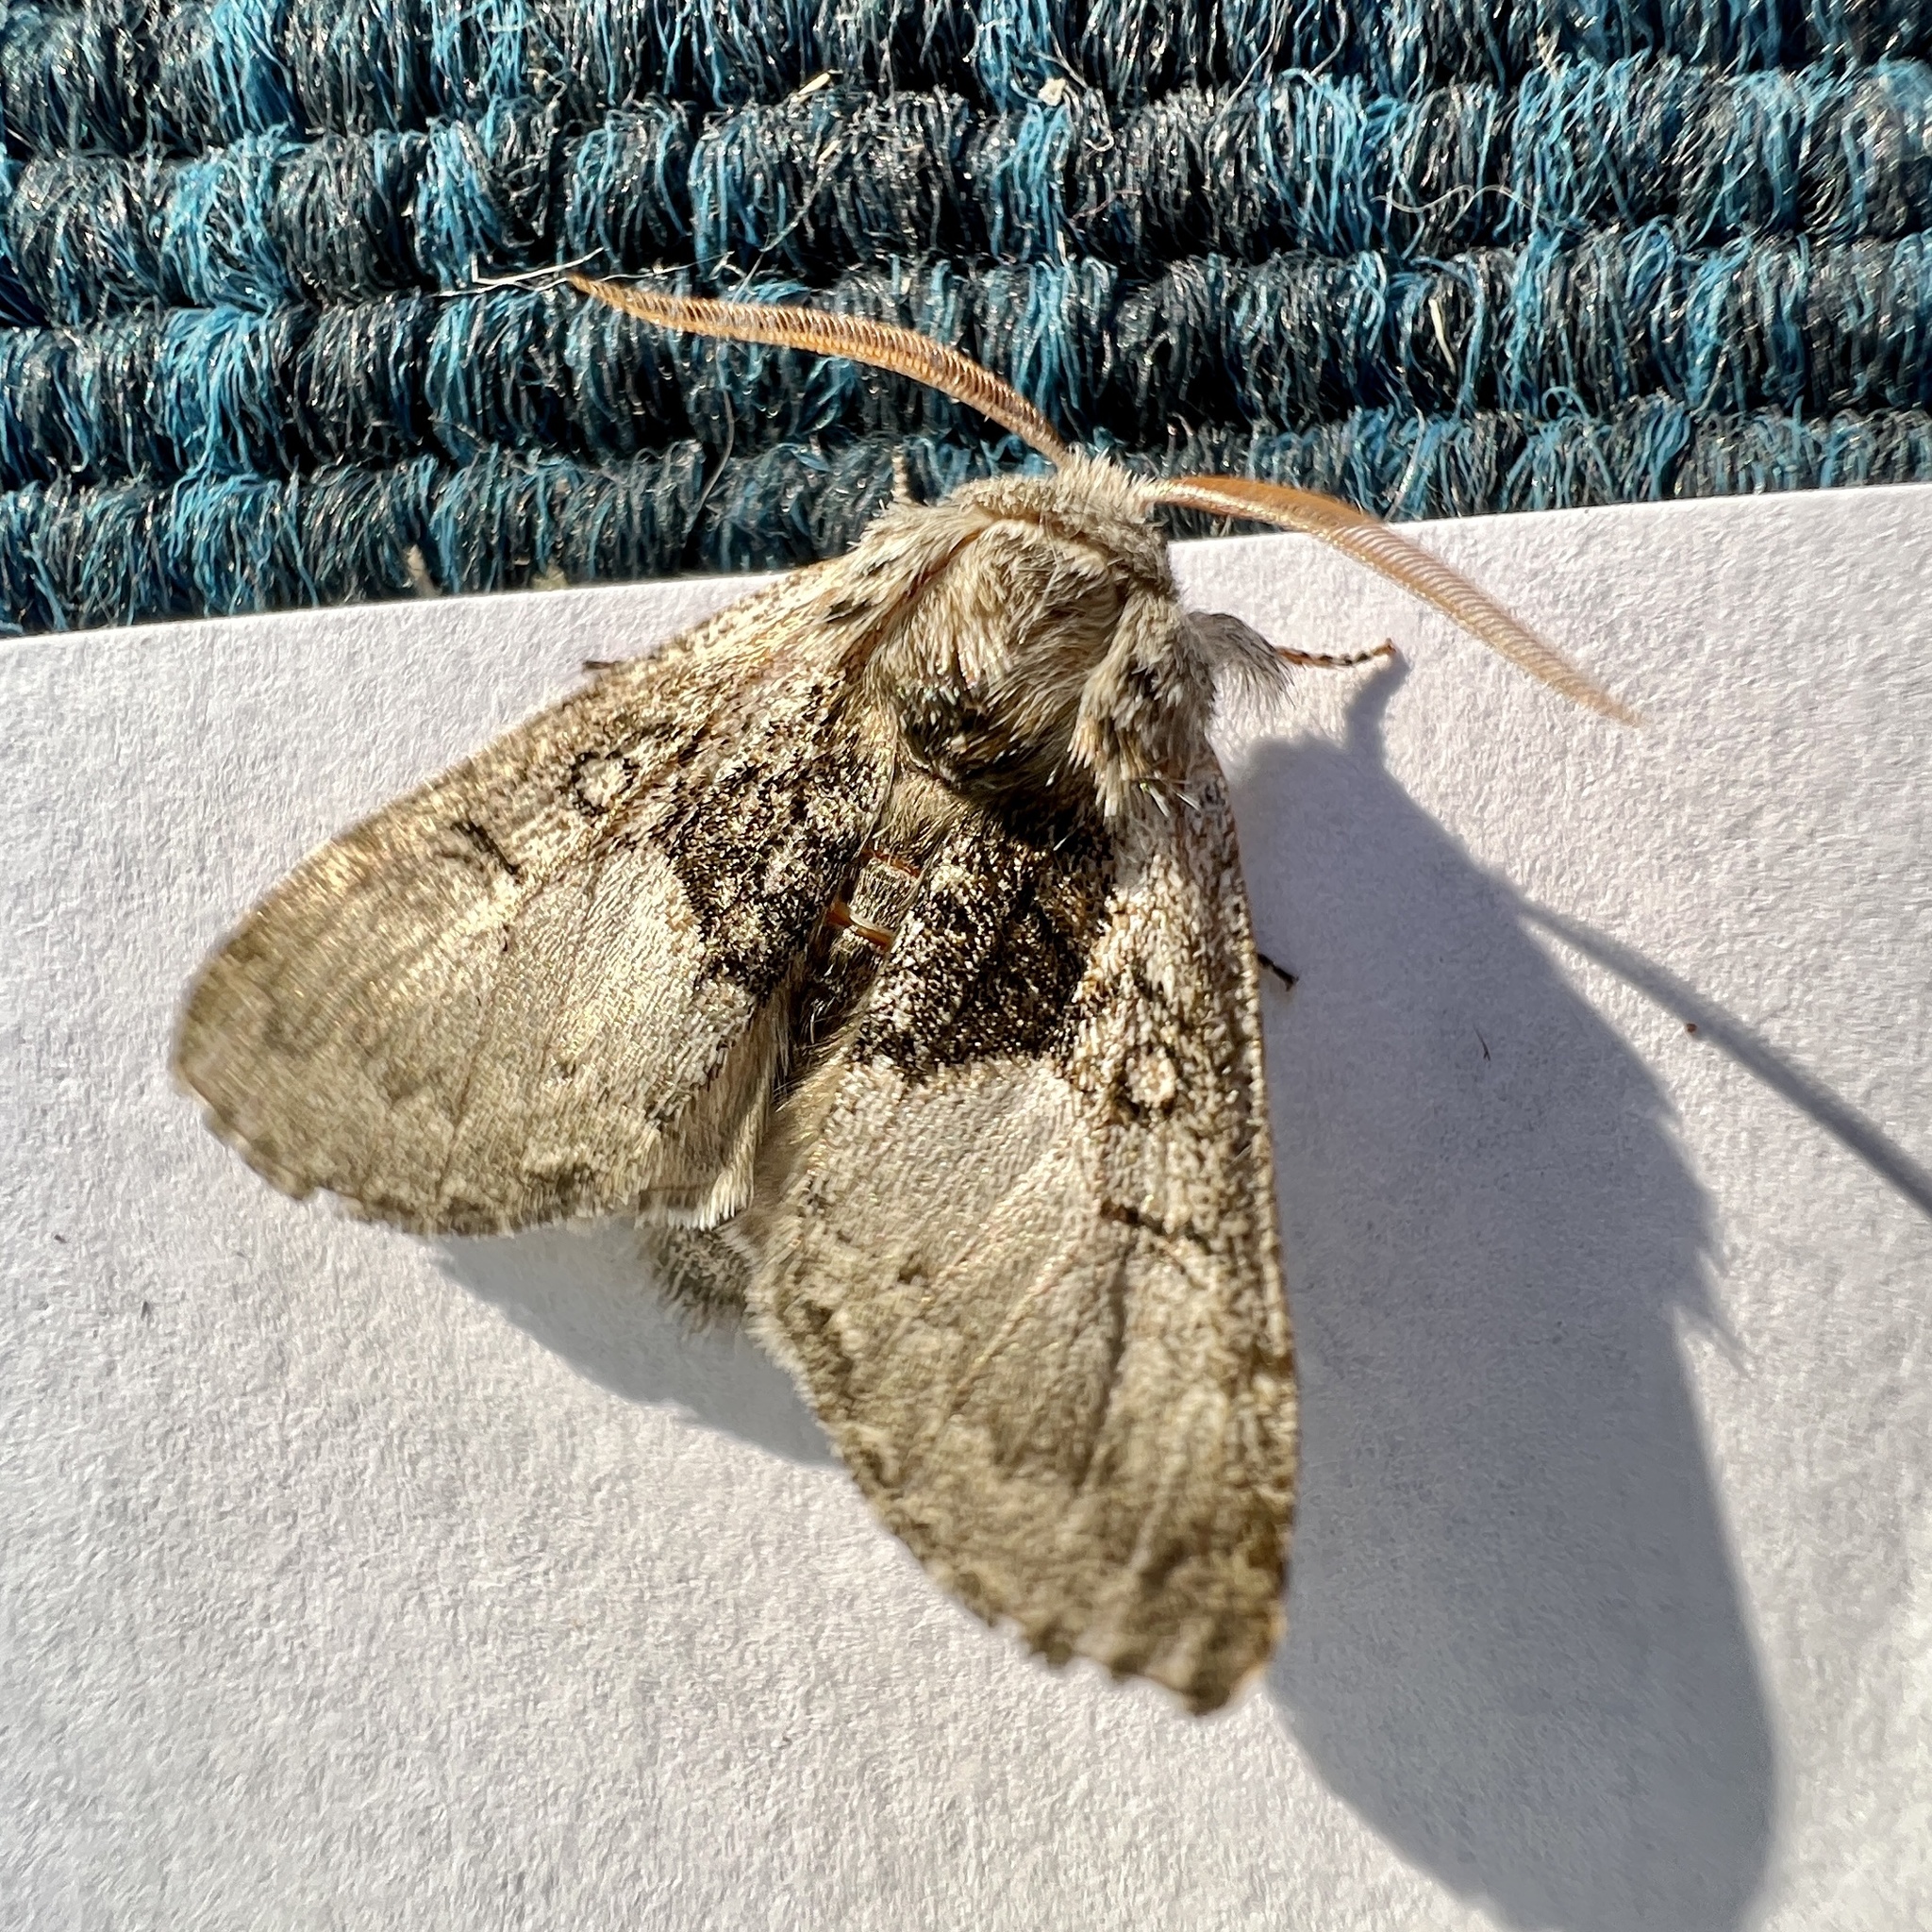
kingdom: Animalia
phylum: Arthropoda
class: Insecta
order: Lepidoptera
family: Noctuidae
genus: Colocasia
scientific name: Colocasia flavicornis
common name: Saddled yellowhorn
